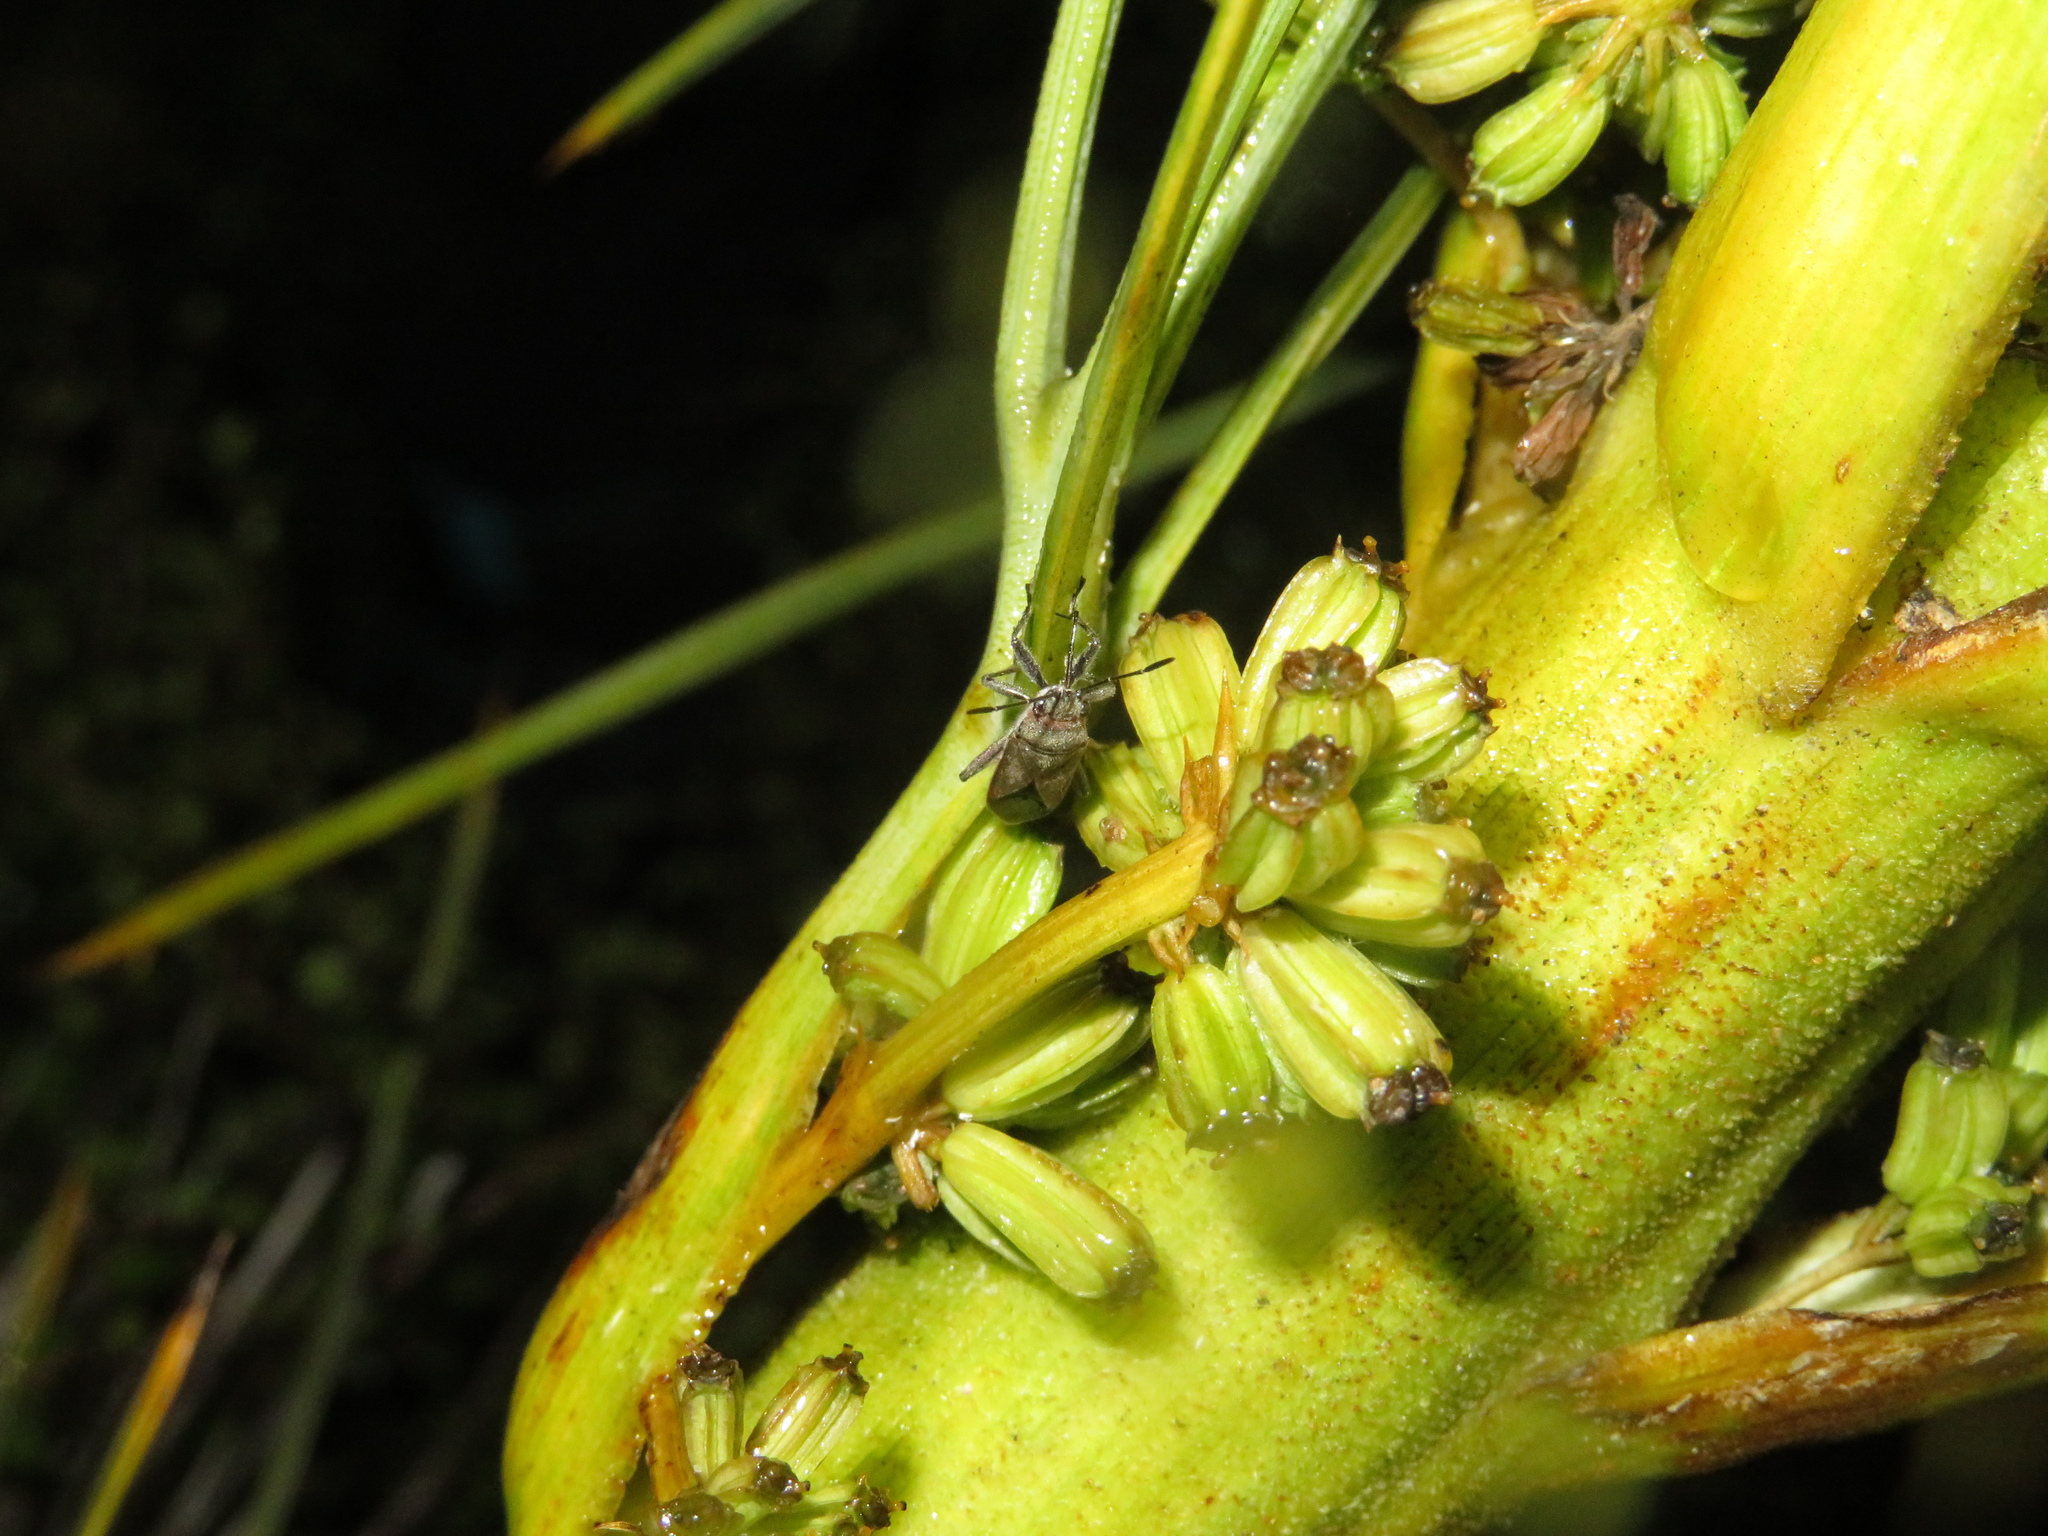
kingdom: Animalia
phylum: Arthropoda
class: Insecta
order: Hemiptera
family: Lygaeidae
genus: Arocatus
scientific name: Arocatus rusticus
